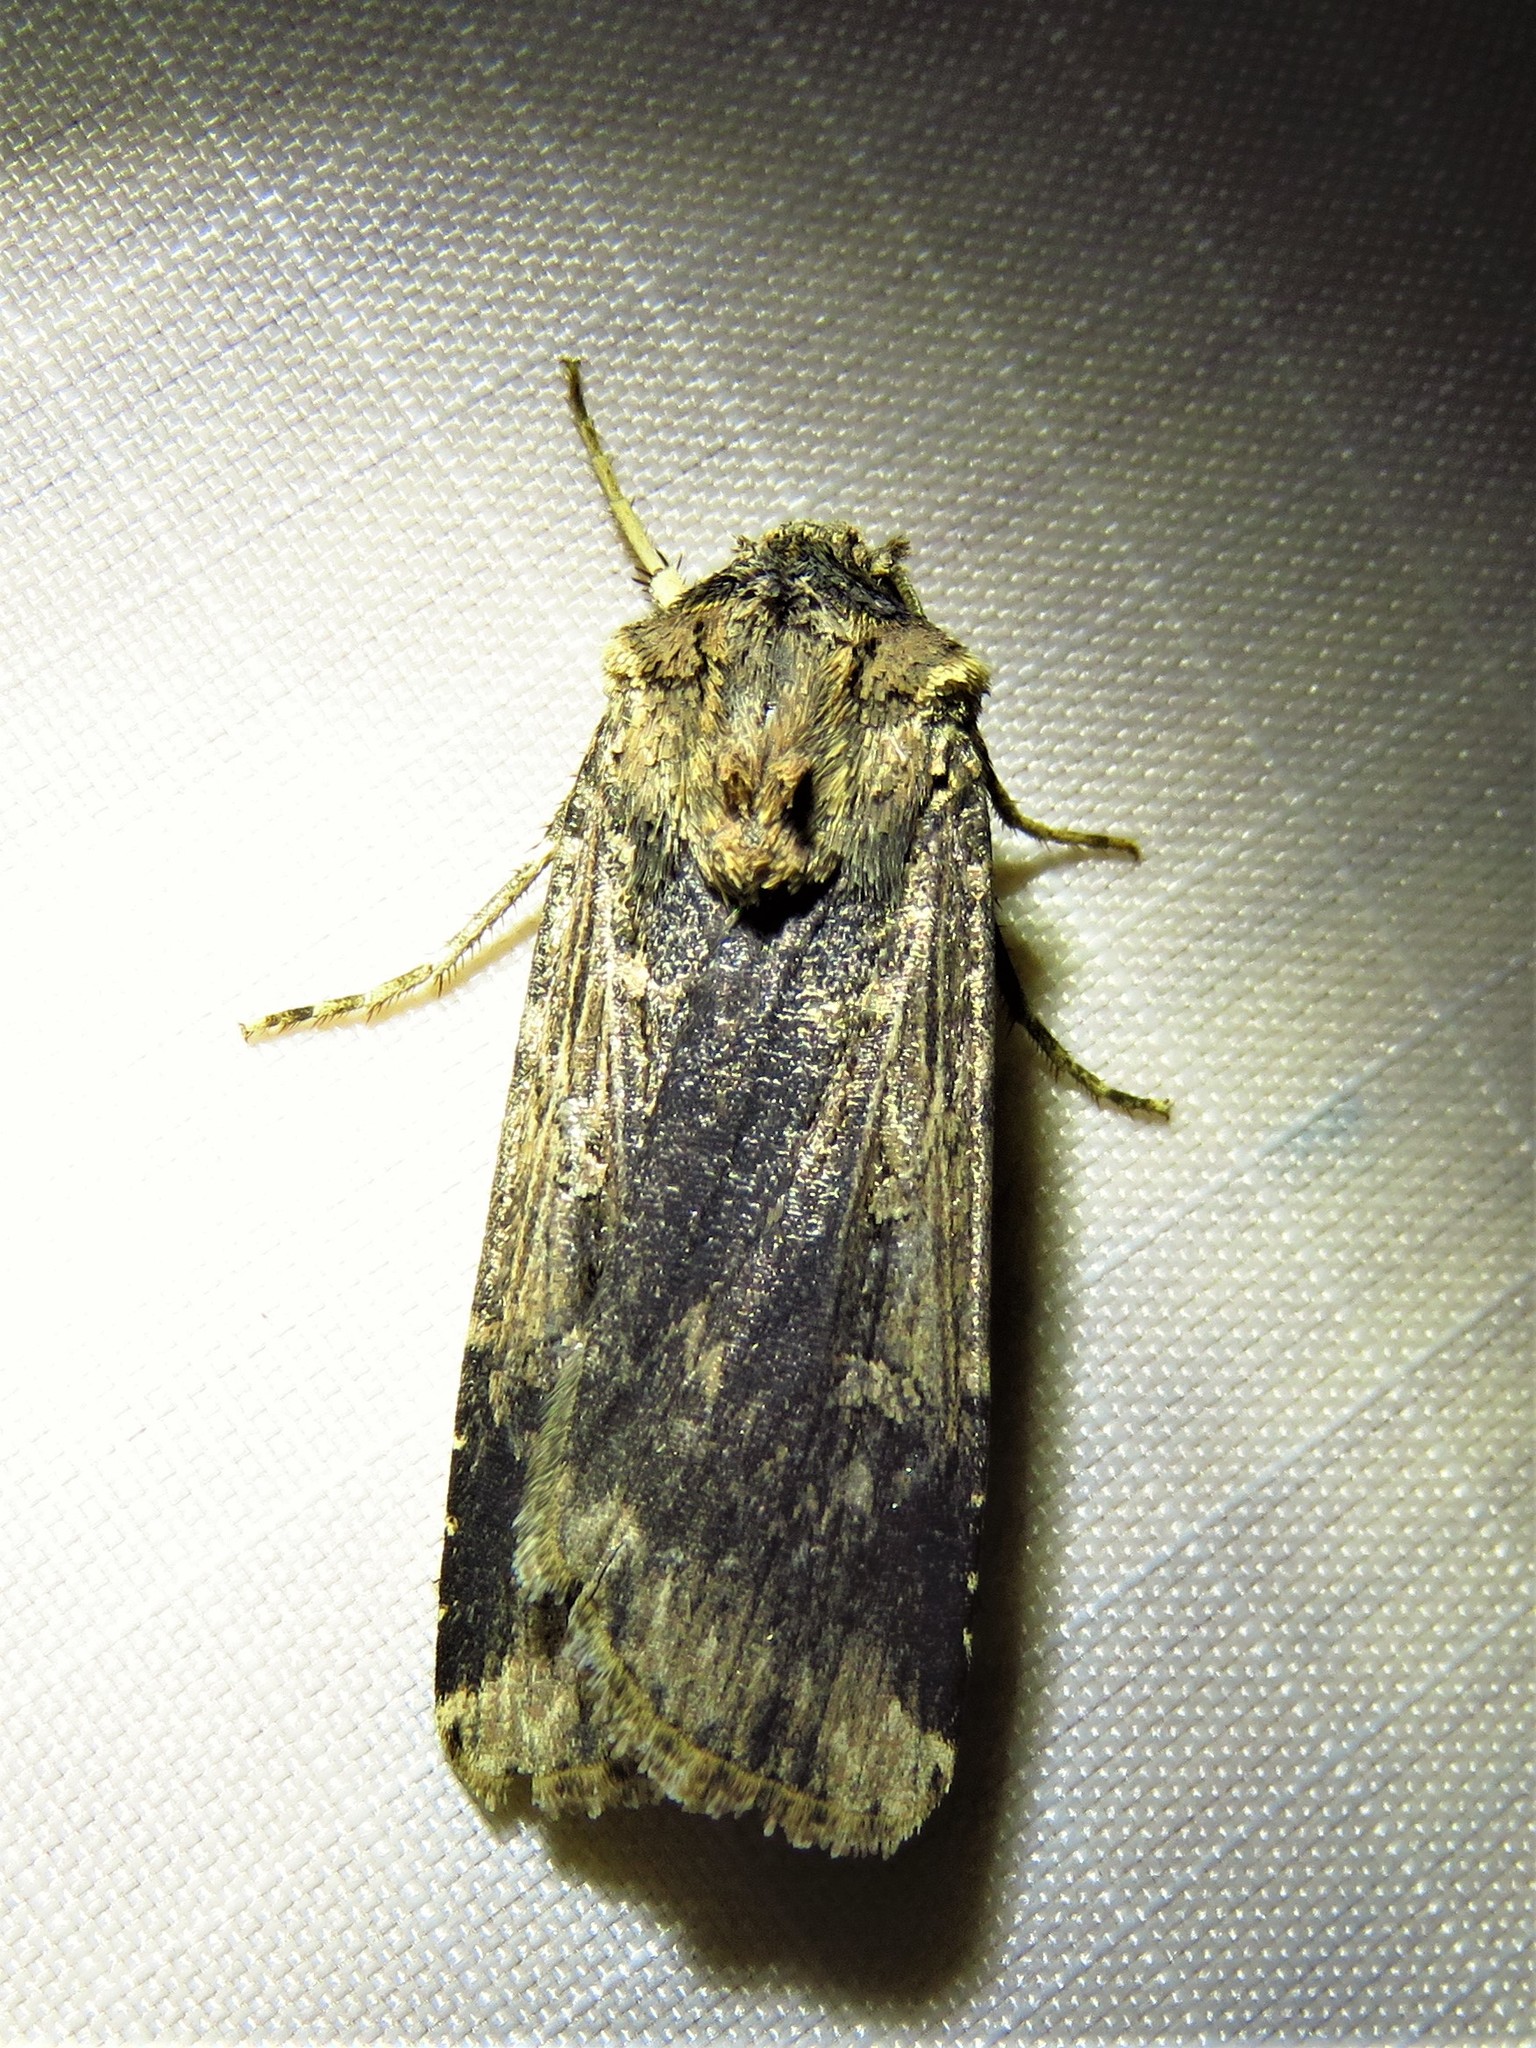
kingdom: Animalia
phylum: Arthropoda
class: Insecta
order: Lepidoptera
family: Noctuidae
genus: Feltia
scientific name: Feltia subterranea
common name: Granulate cutworm
